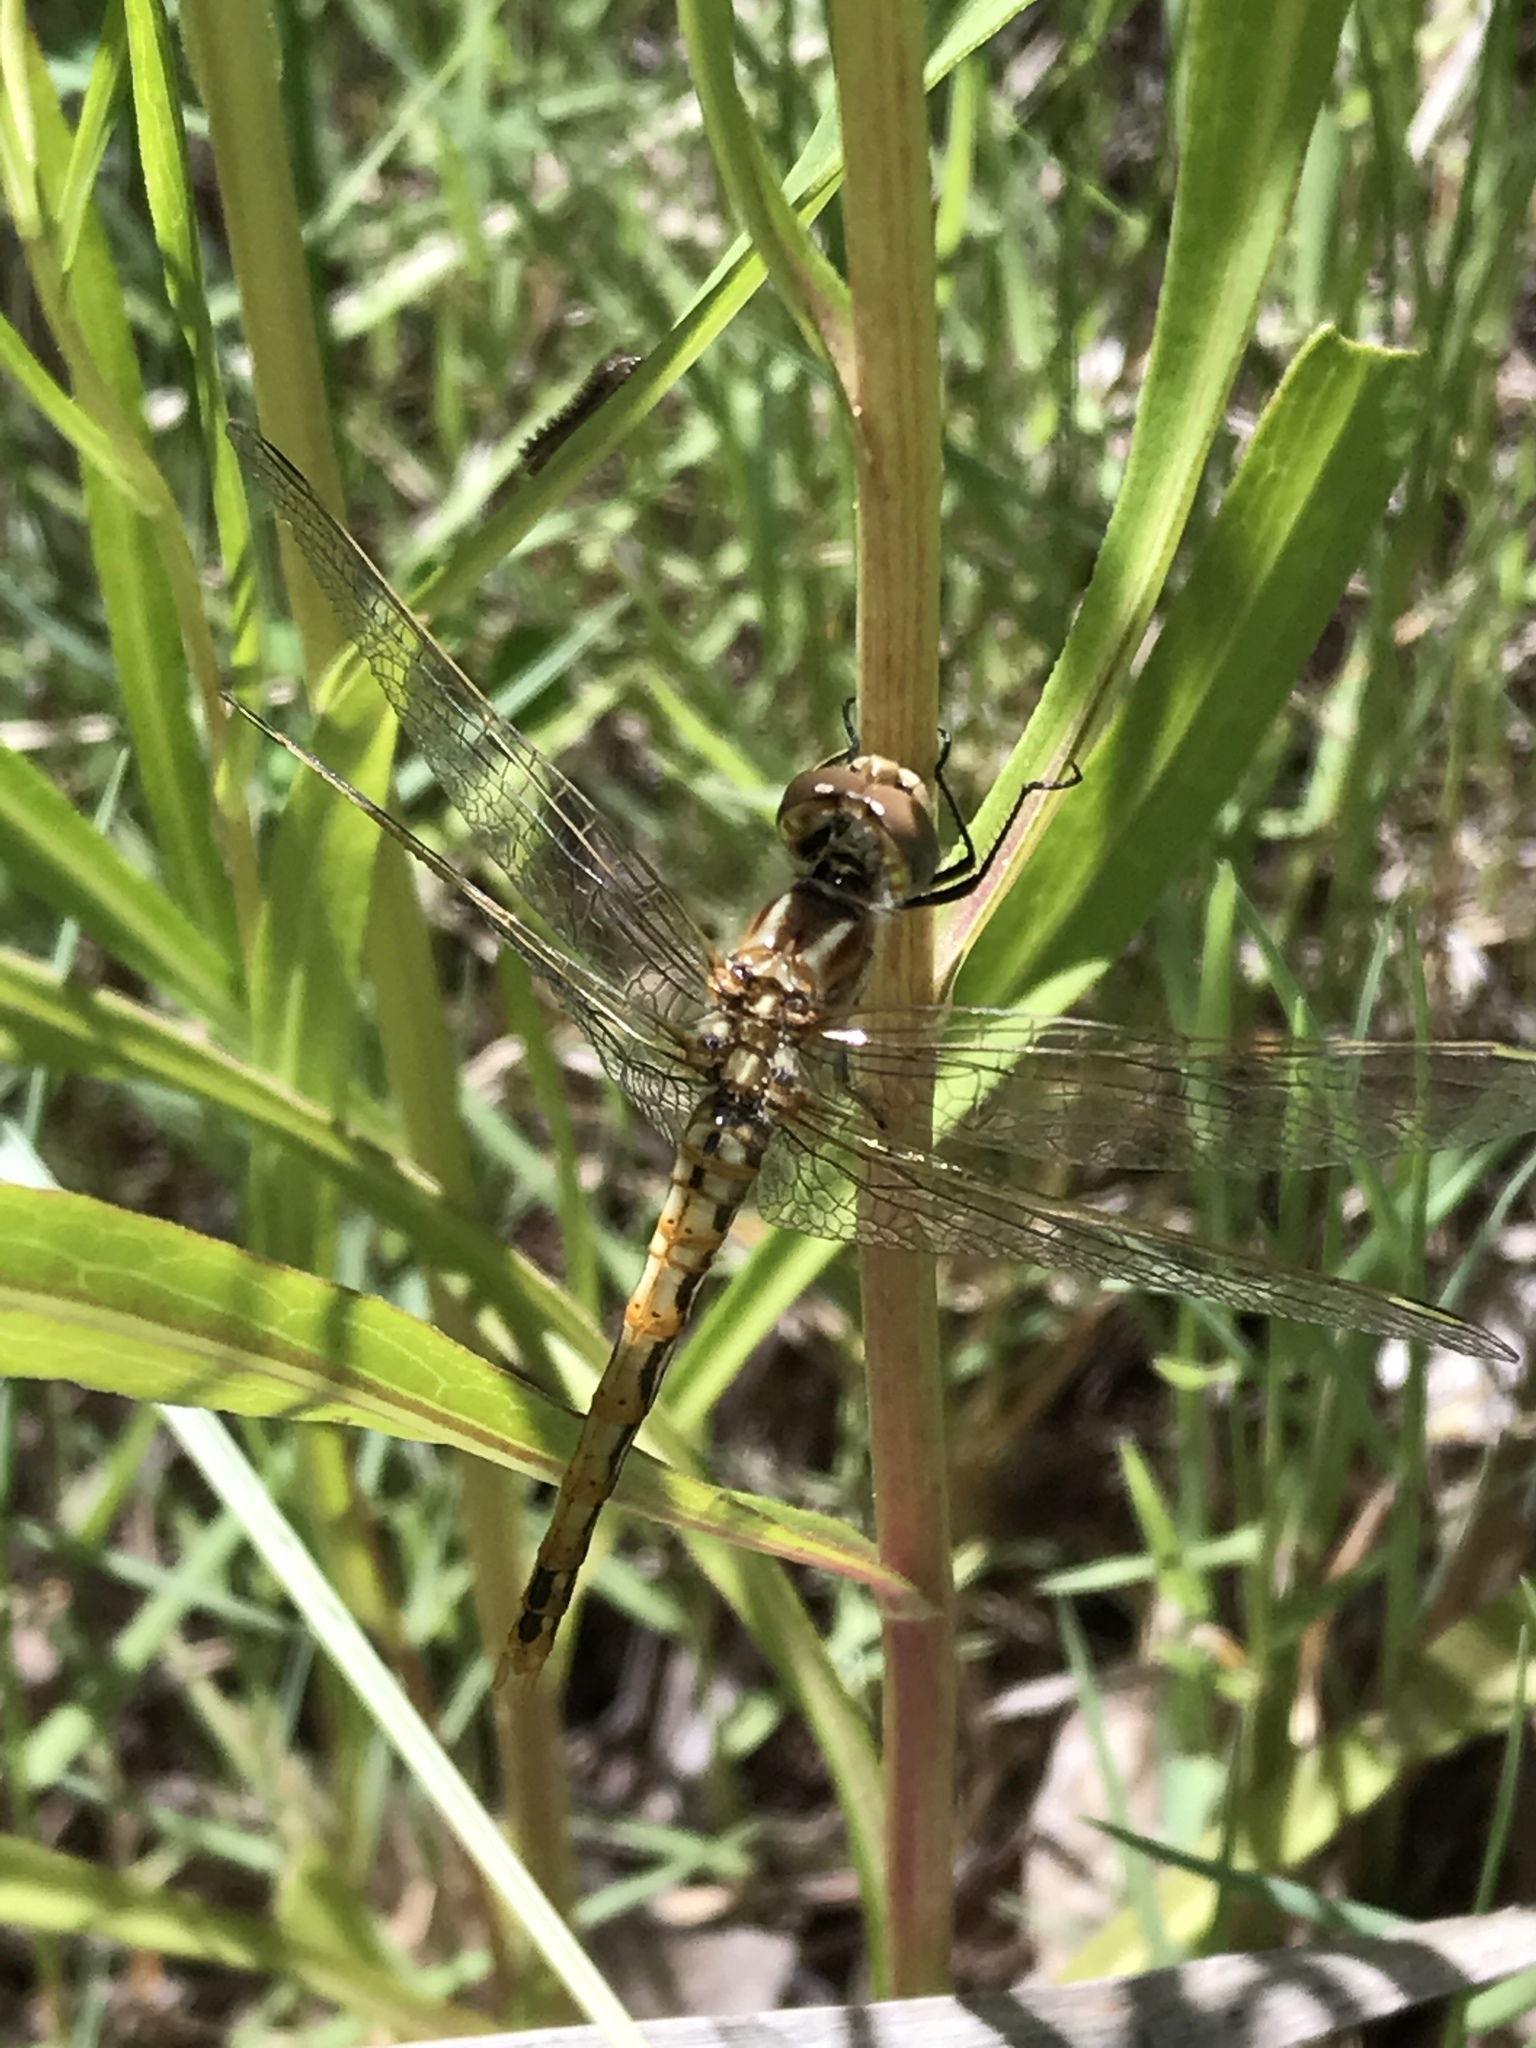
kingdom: Animalia
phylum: Arthropoda
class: Insecta
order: Odonata
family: Libellulidae
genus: Sympetrum
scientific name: Sympetrum corruptum
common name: Variegated meadowhawk
